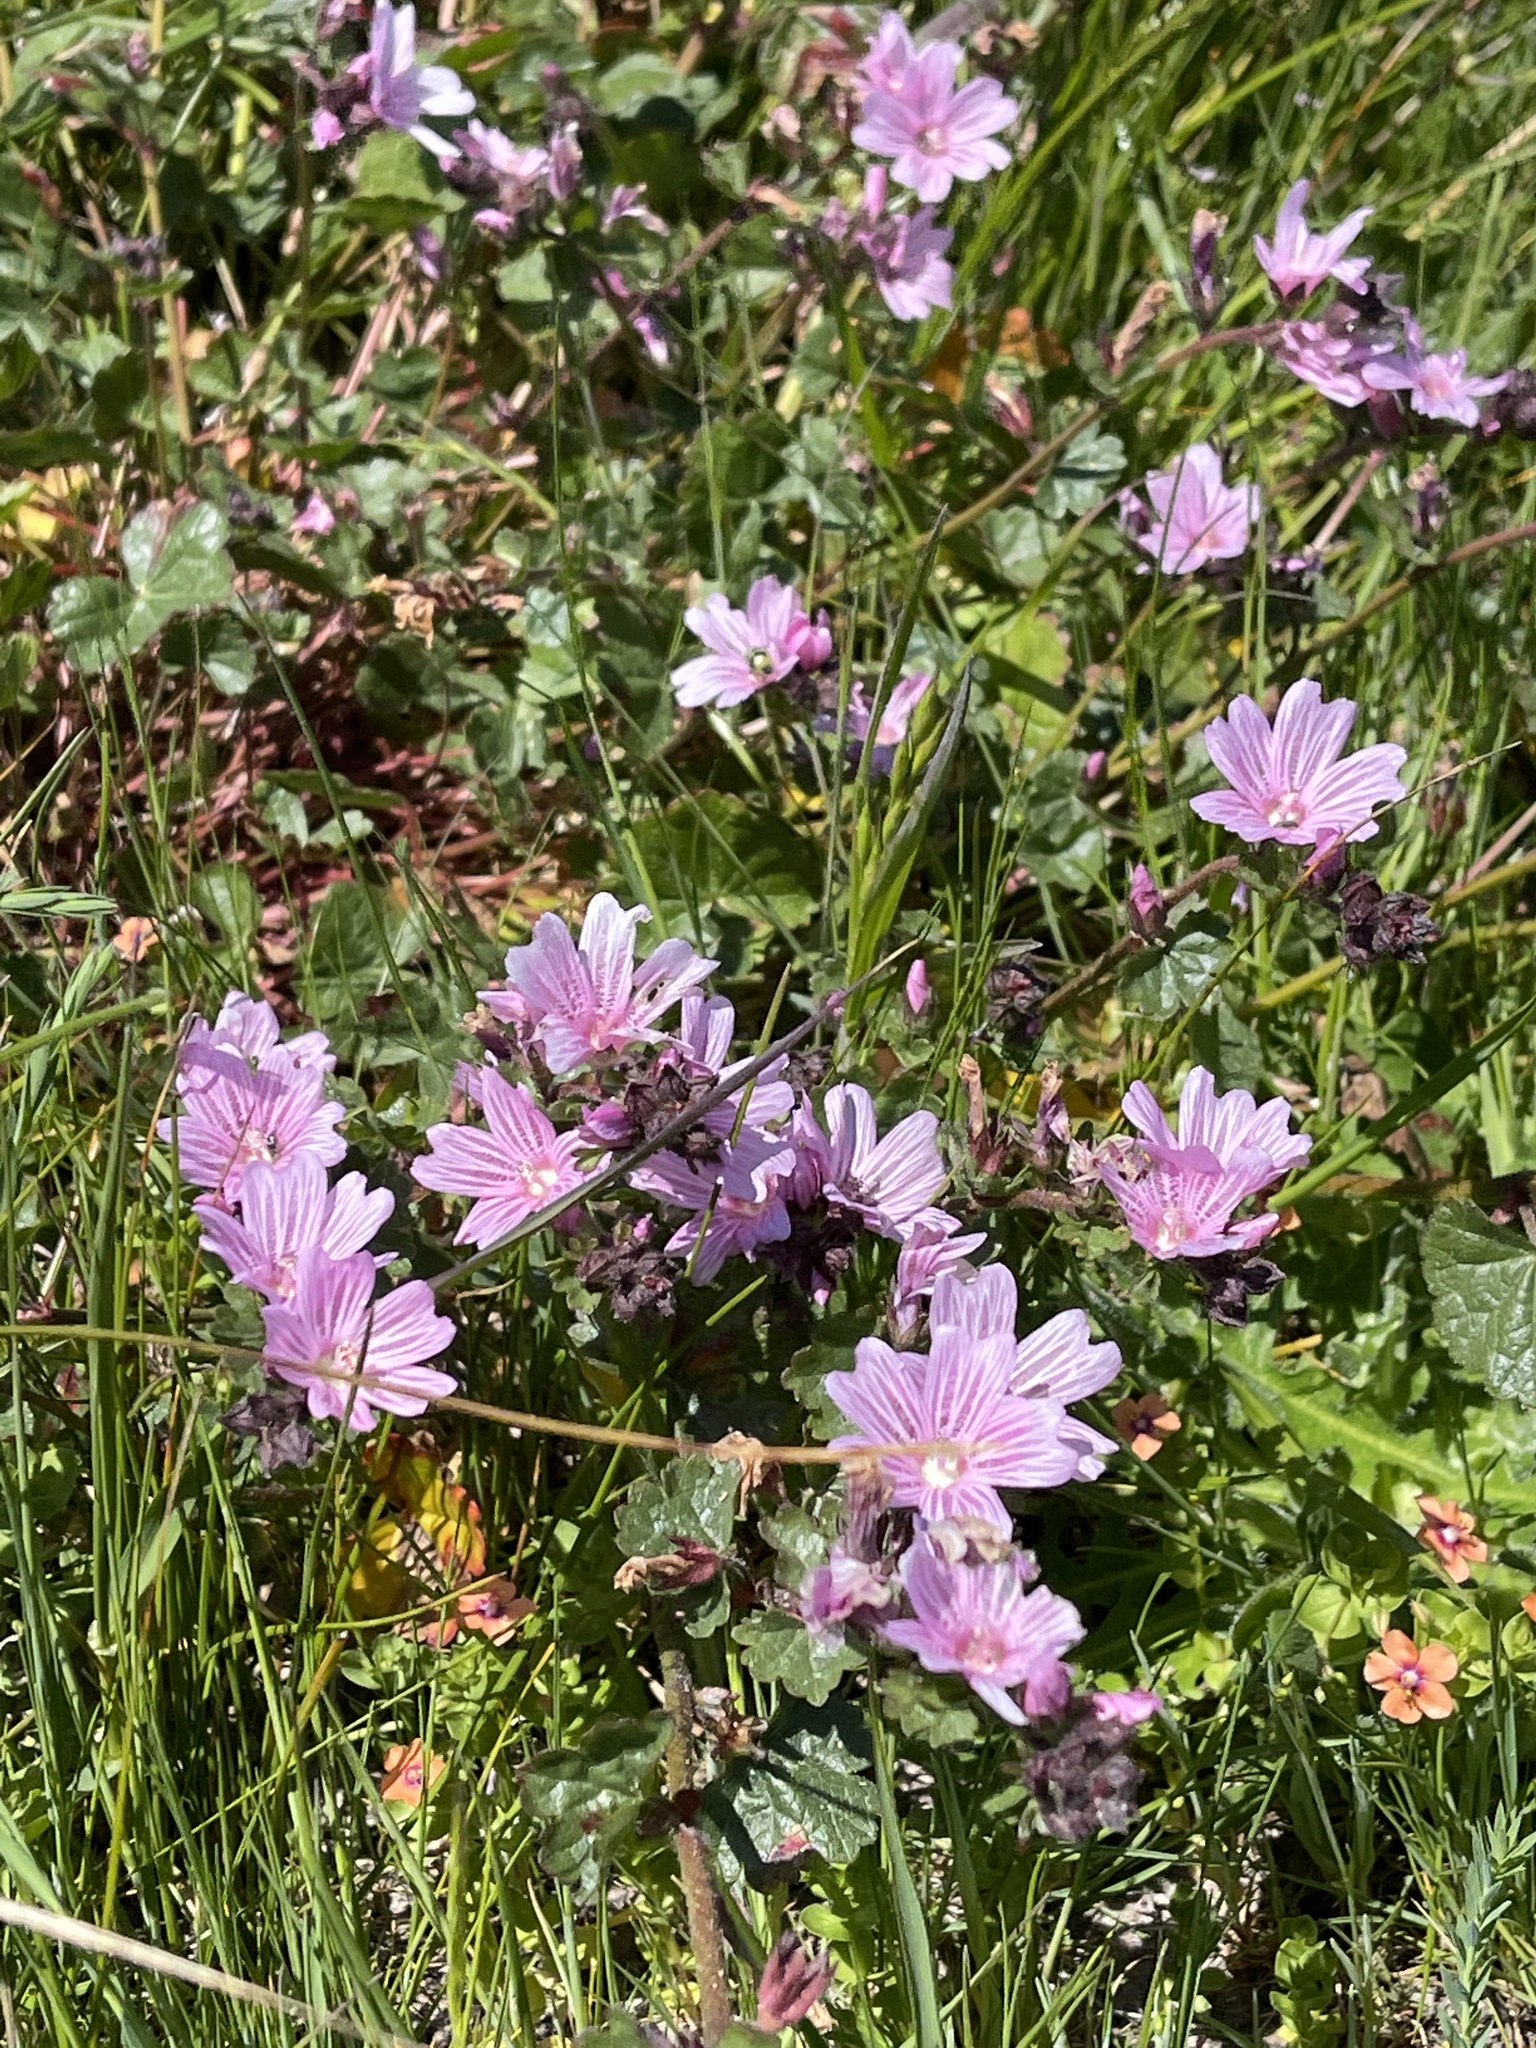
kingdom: Plantae
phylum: Tracheophyta
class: Magnoliopsida
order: Malvales
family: Malvaceae
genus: Sidalcea
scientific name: Sidalcea malviflora
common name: Greek mallow
